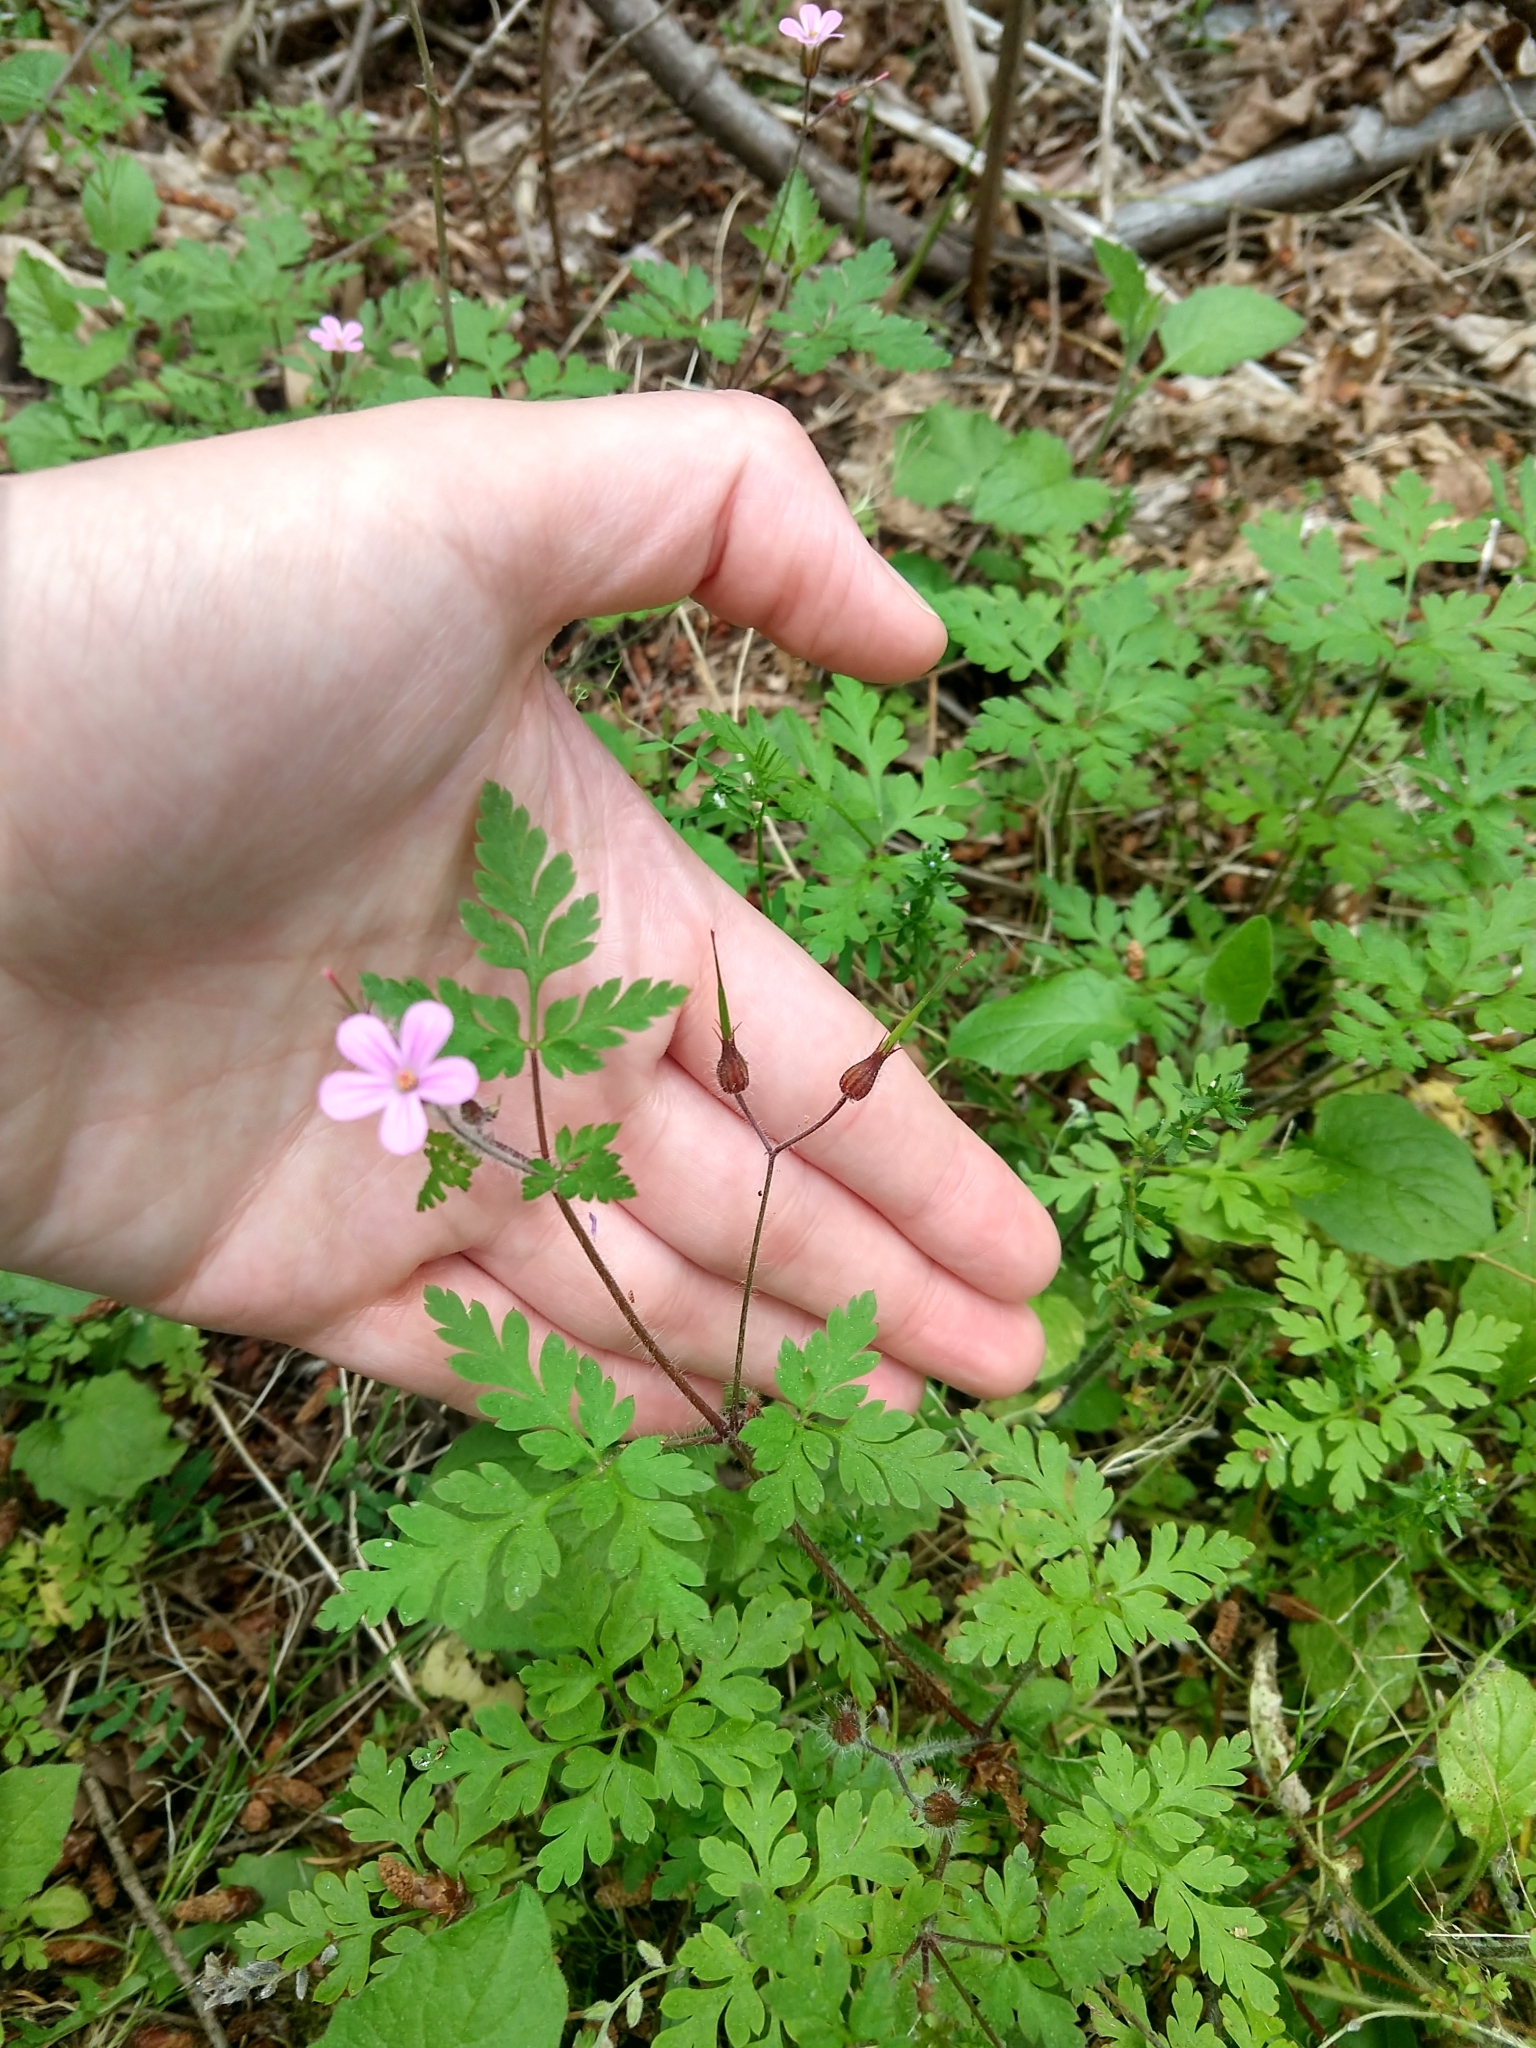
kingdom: Plantae
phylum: Tracheophyta
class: Magnoliopsida
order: Geraniales
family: Geraniaceae
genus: Geranium
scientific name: Geranium robertianum
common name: Herb-robert
